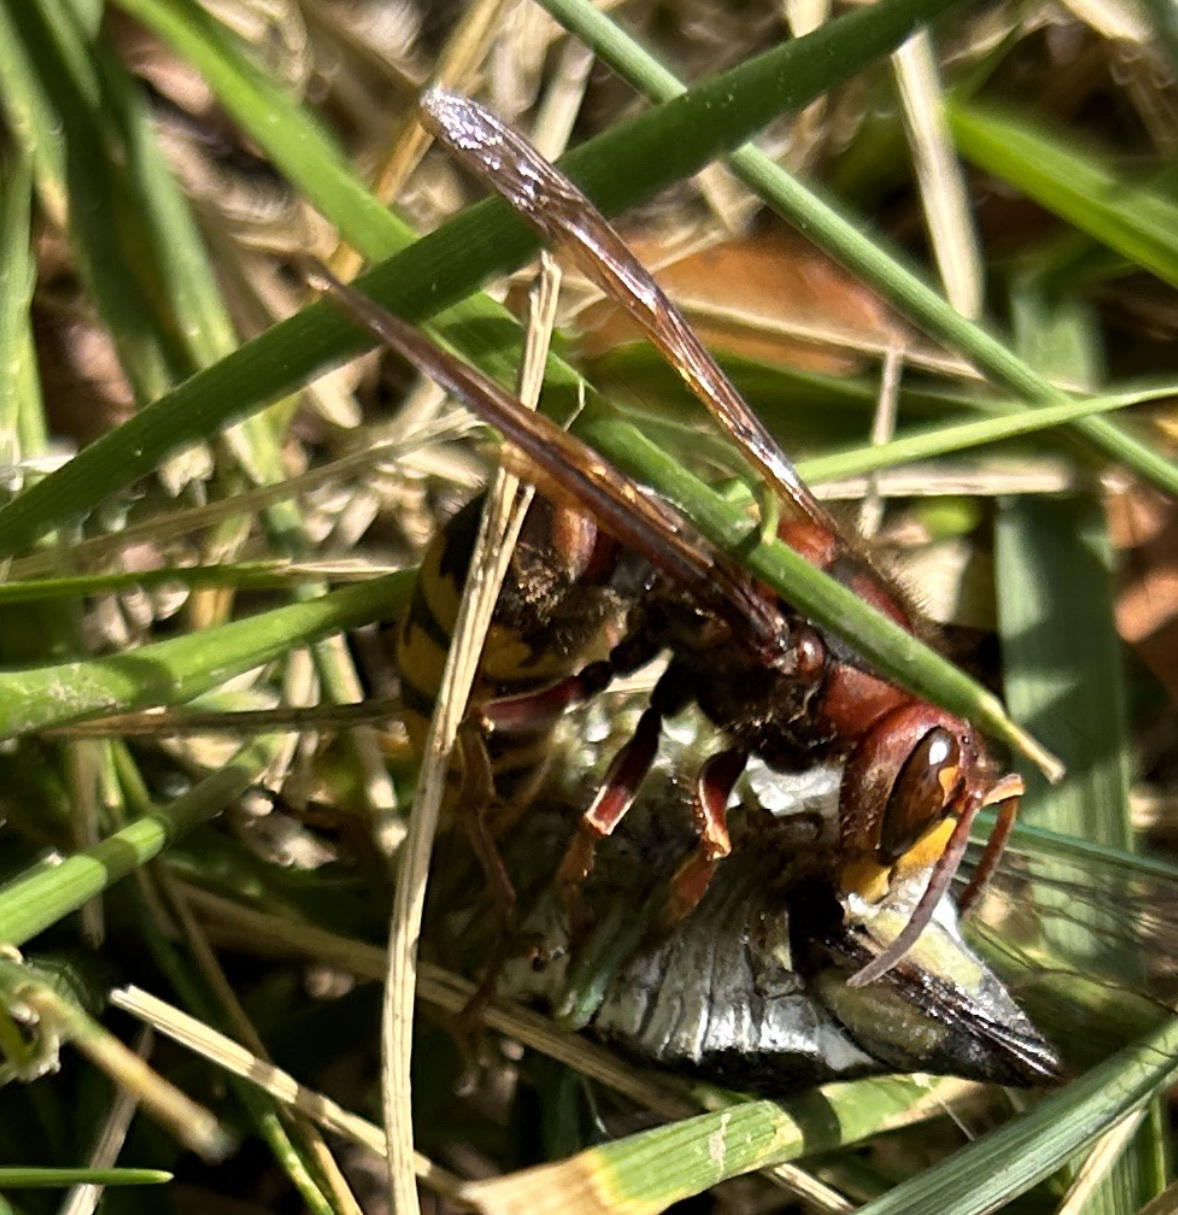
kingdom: Animalia
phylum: Arthropoda
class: Insecta
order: Hymenoptera
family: Vespidae
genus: Vespa
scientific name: Vespa crabro
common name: Hornet
